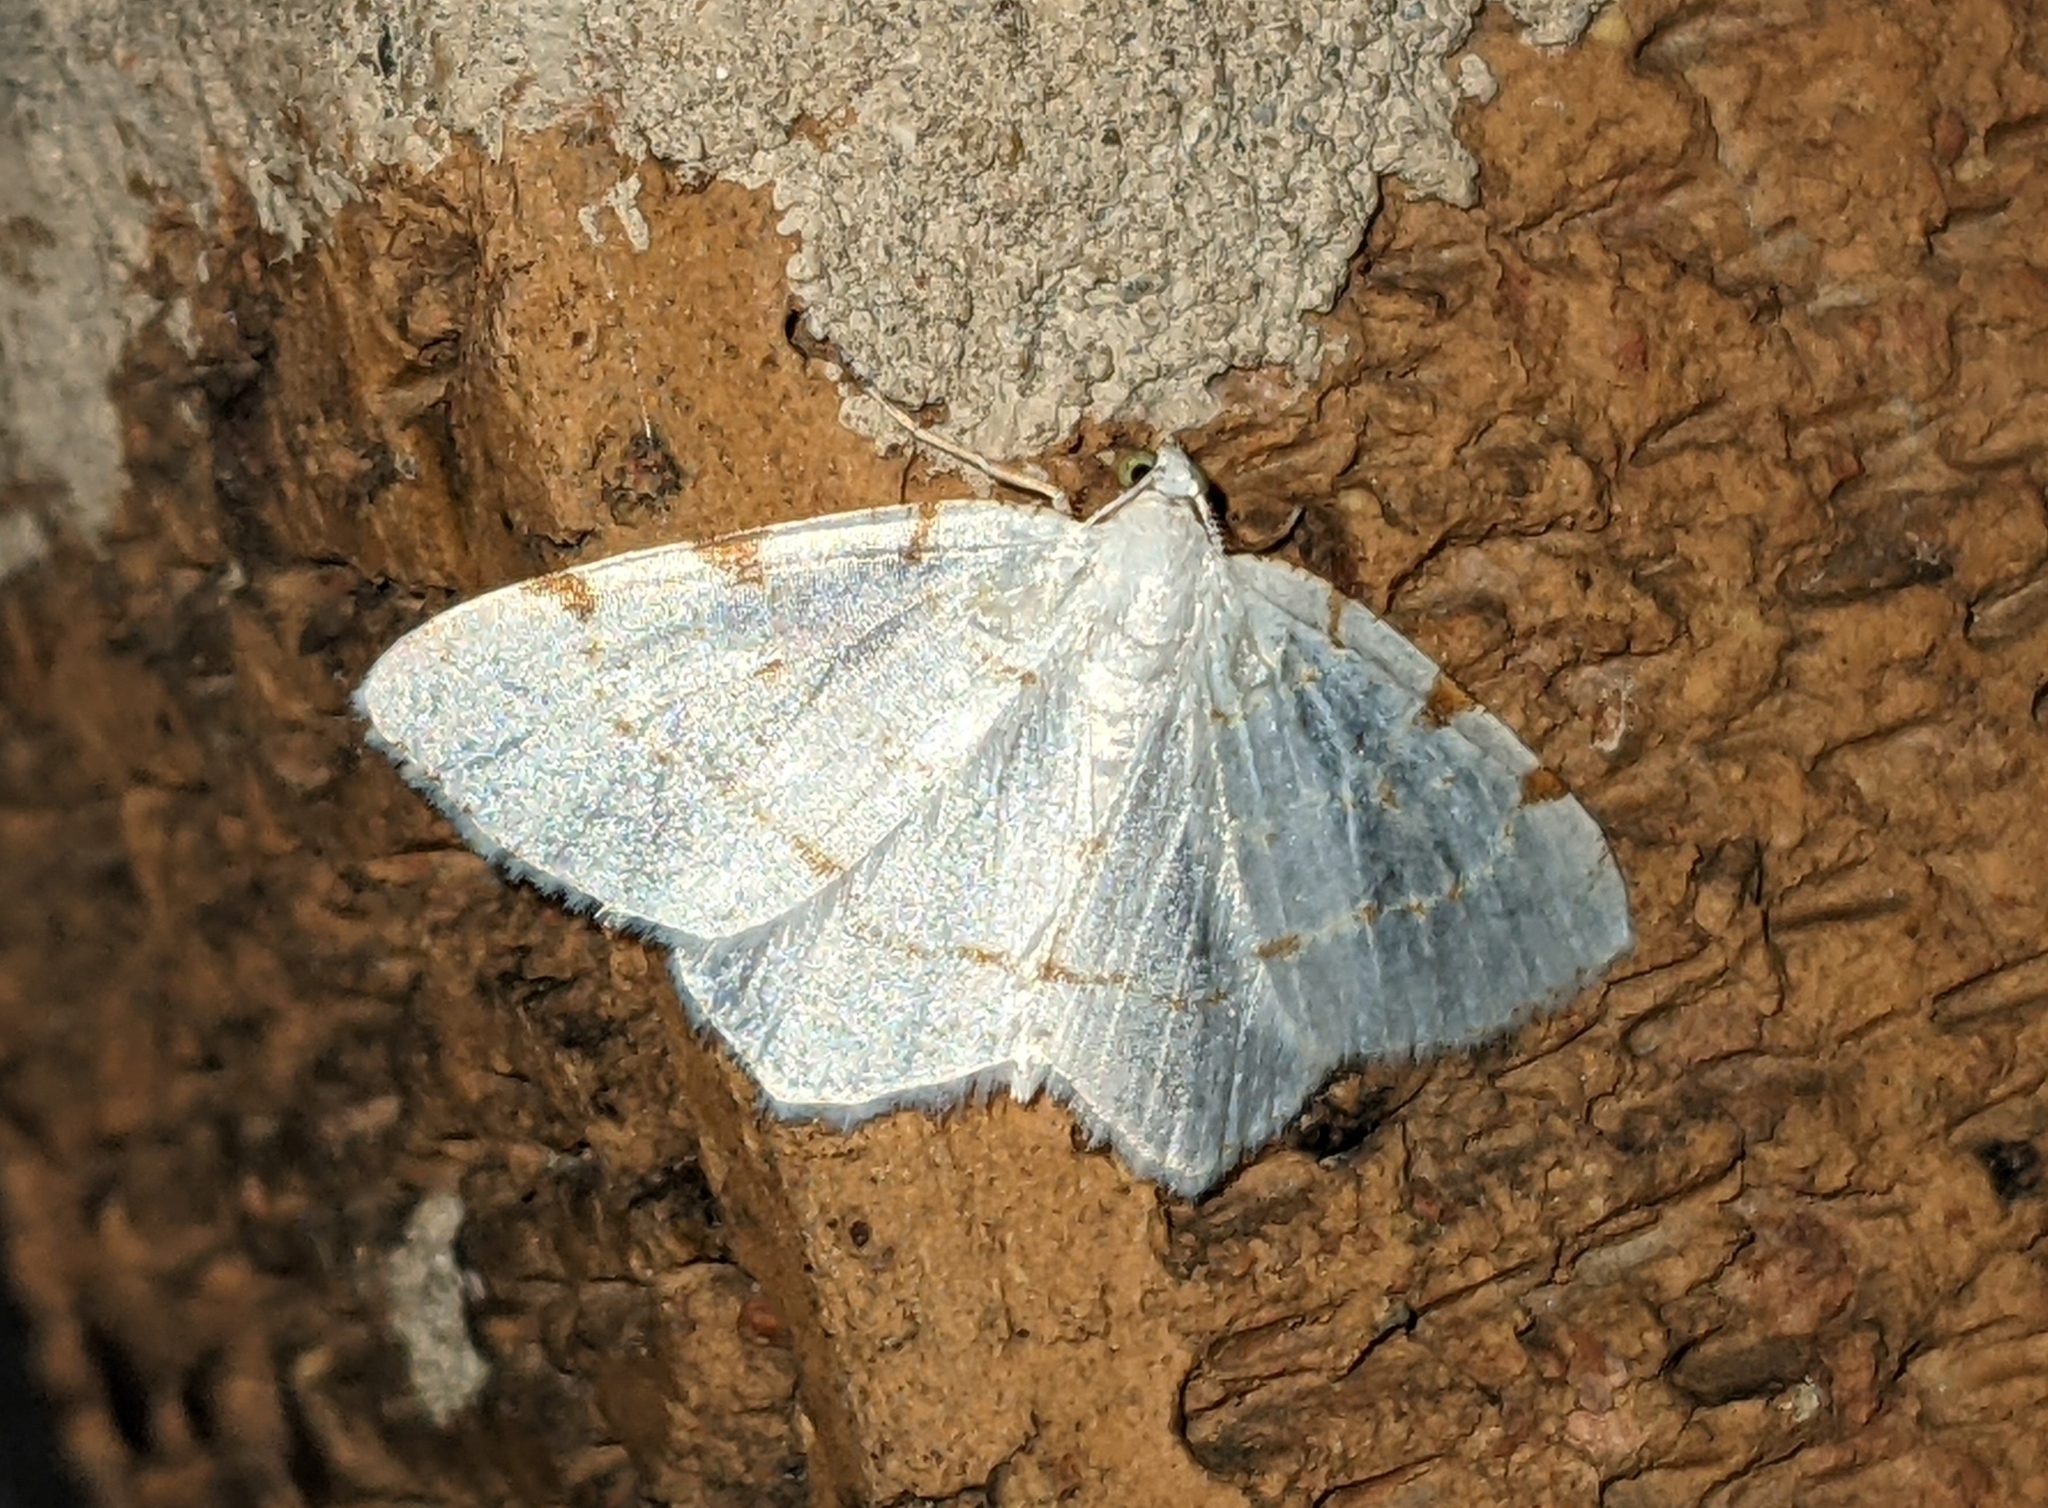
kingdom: Animalia
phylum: Arthropoda
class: Insecta
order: Lepidoptera
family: Geometridae
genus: Macaria
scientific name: Macaria pustularia
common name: Lesser maple spanworm moth
